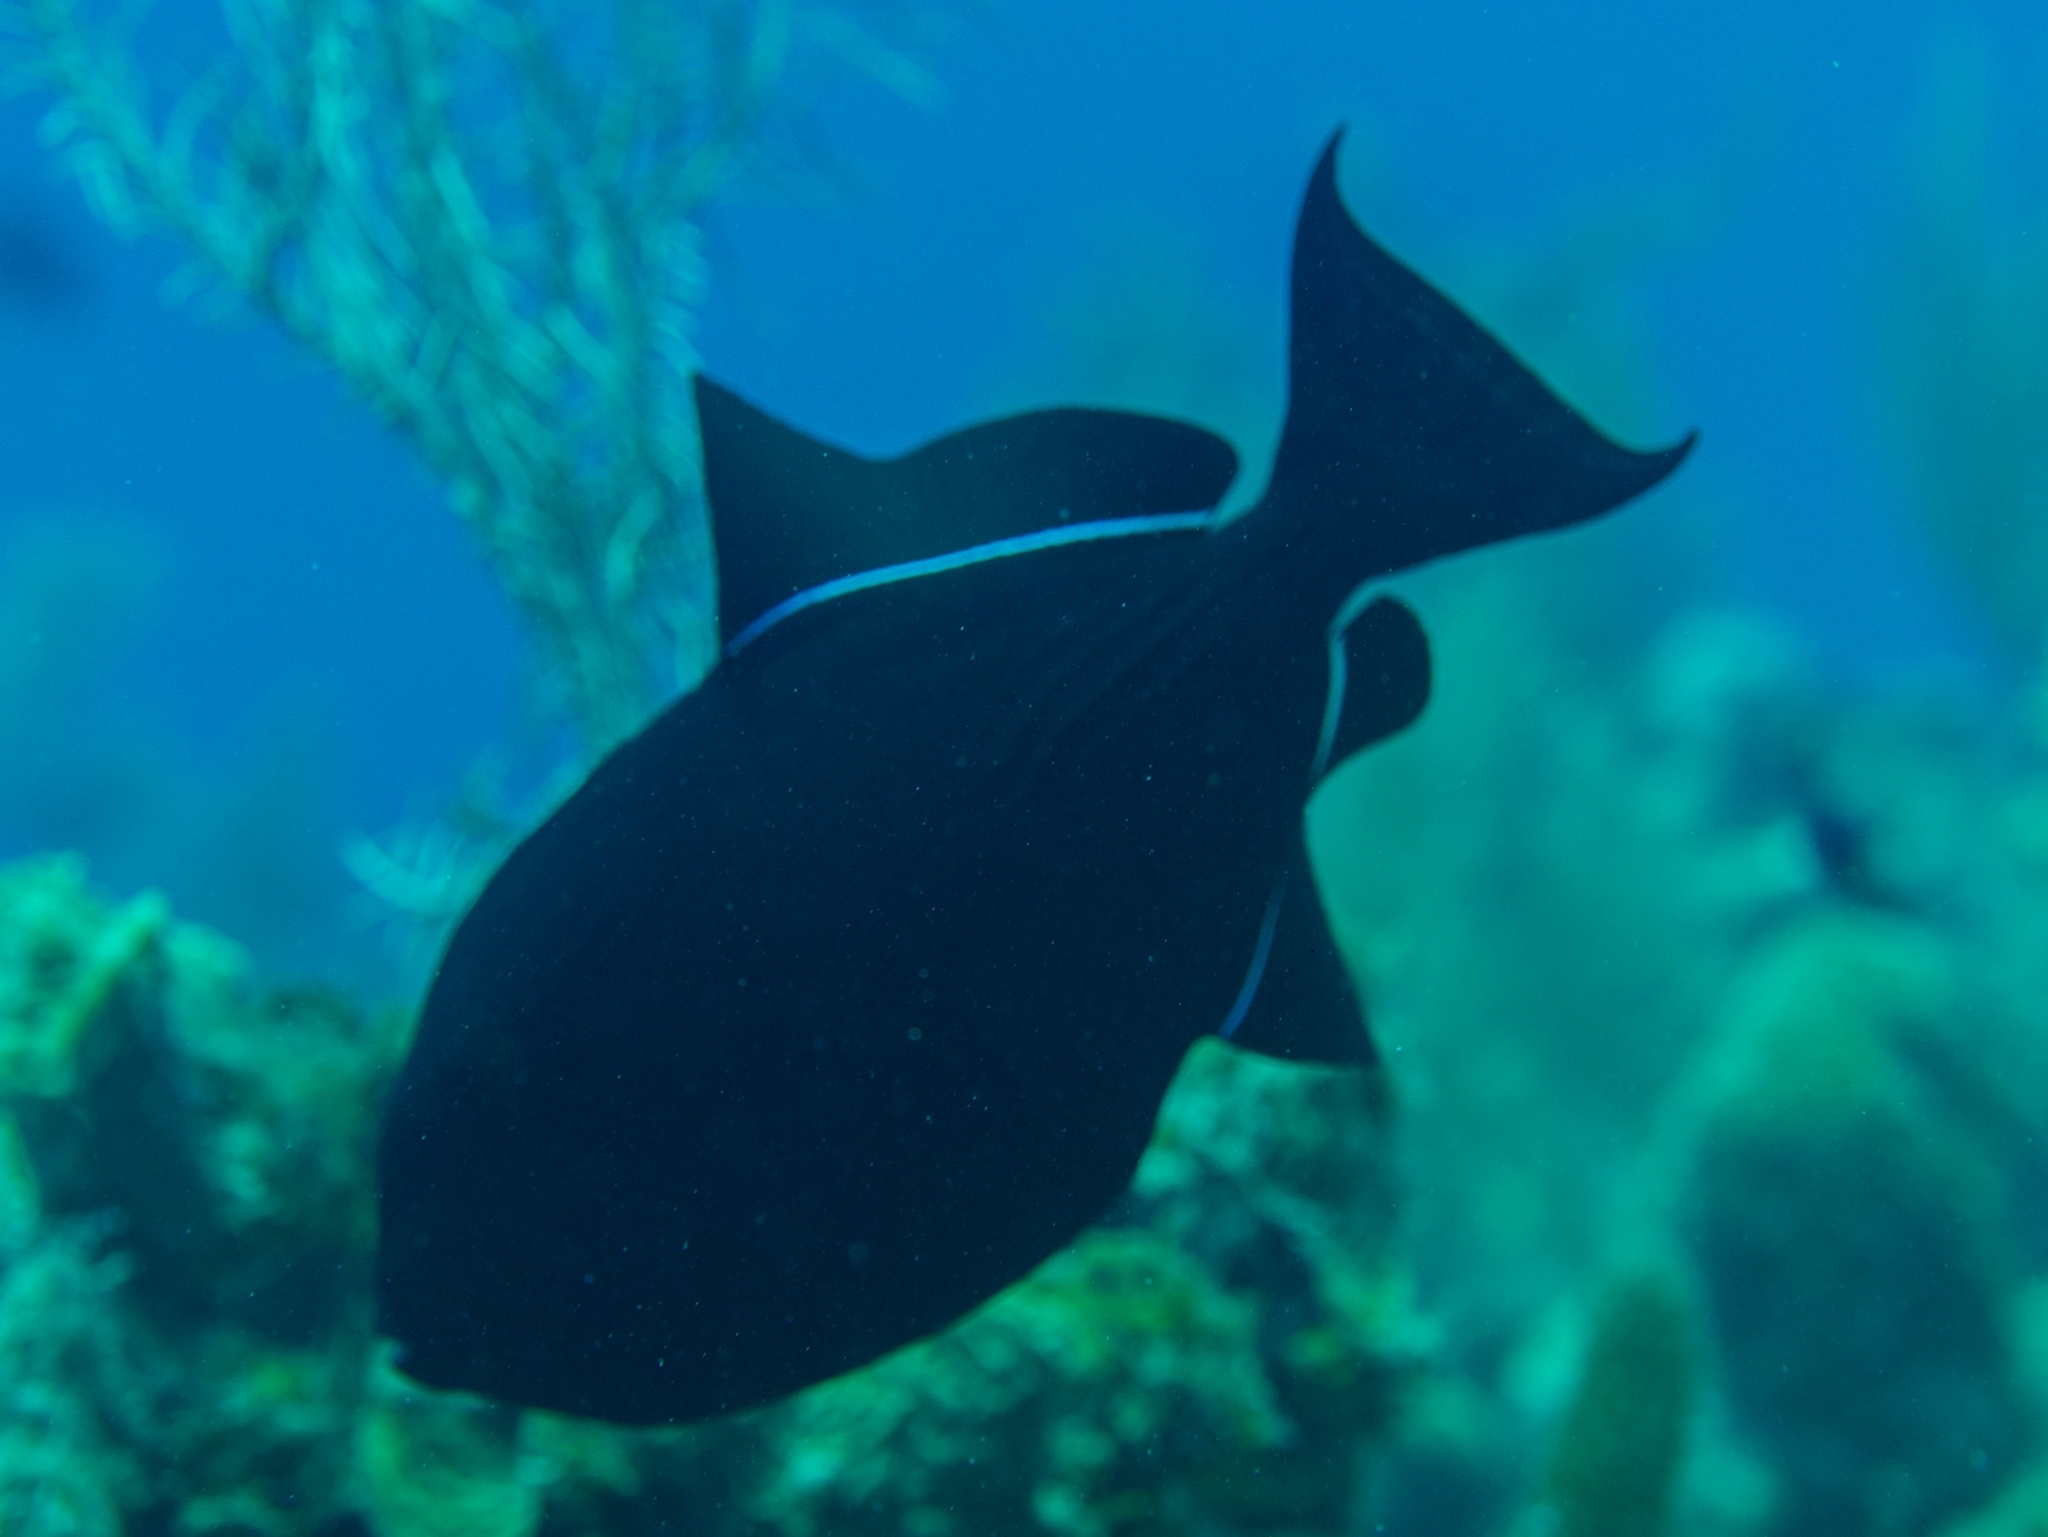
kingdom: Animalia
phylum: Chordata
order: Tetraodontiformes
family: Balistidae
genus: Melichthys
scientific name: Melichthys niger
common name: Black durgon
